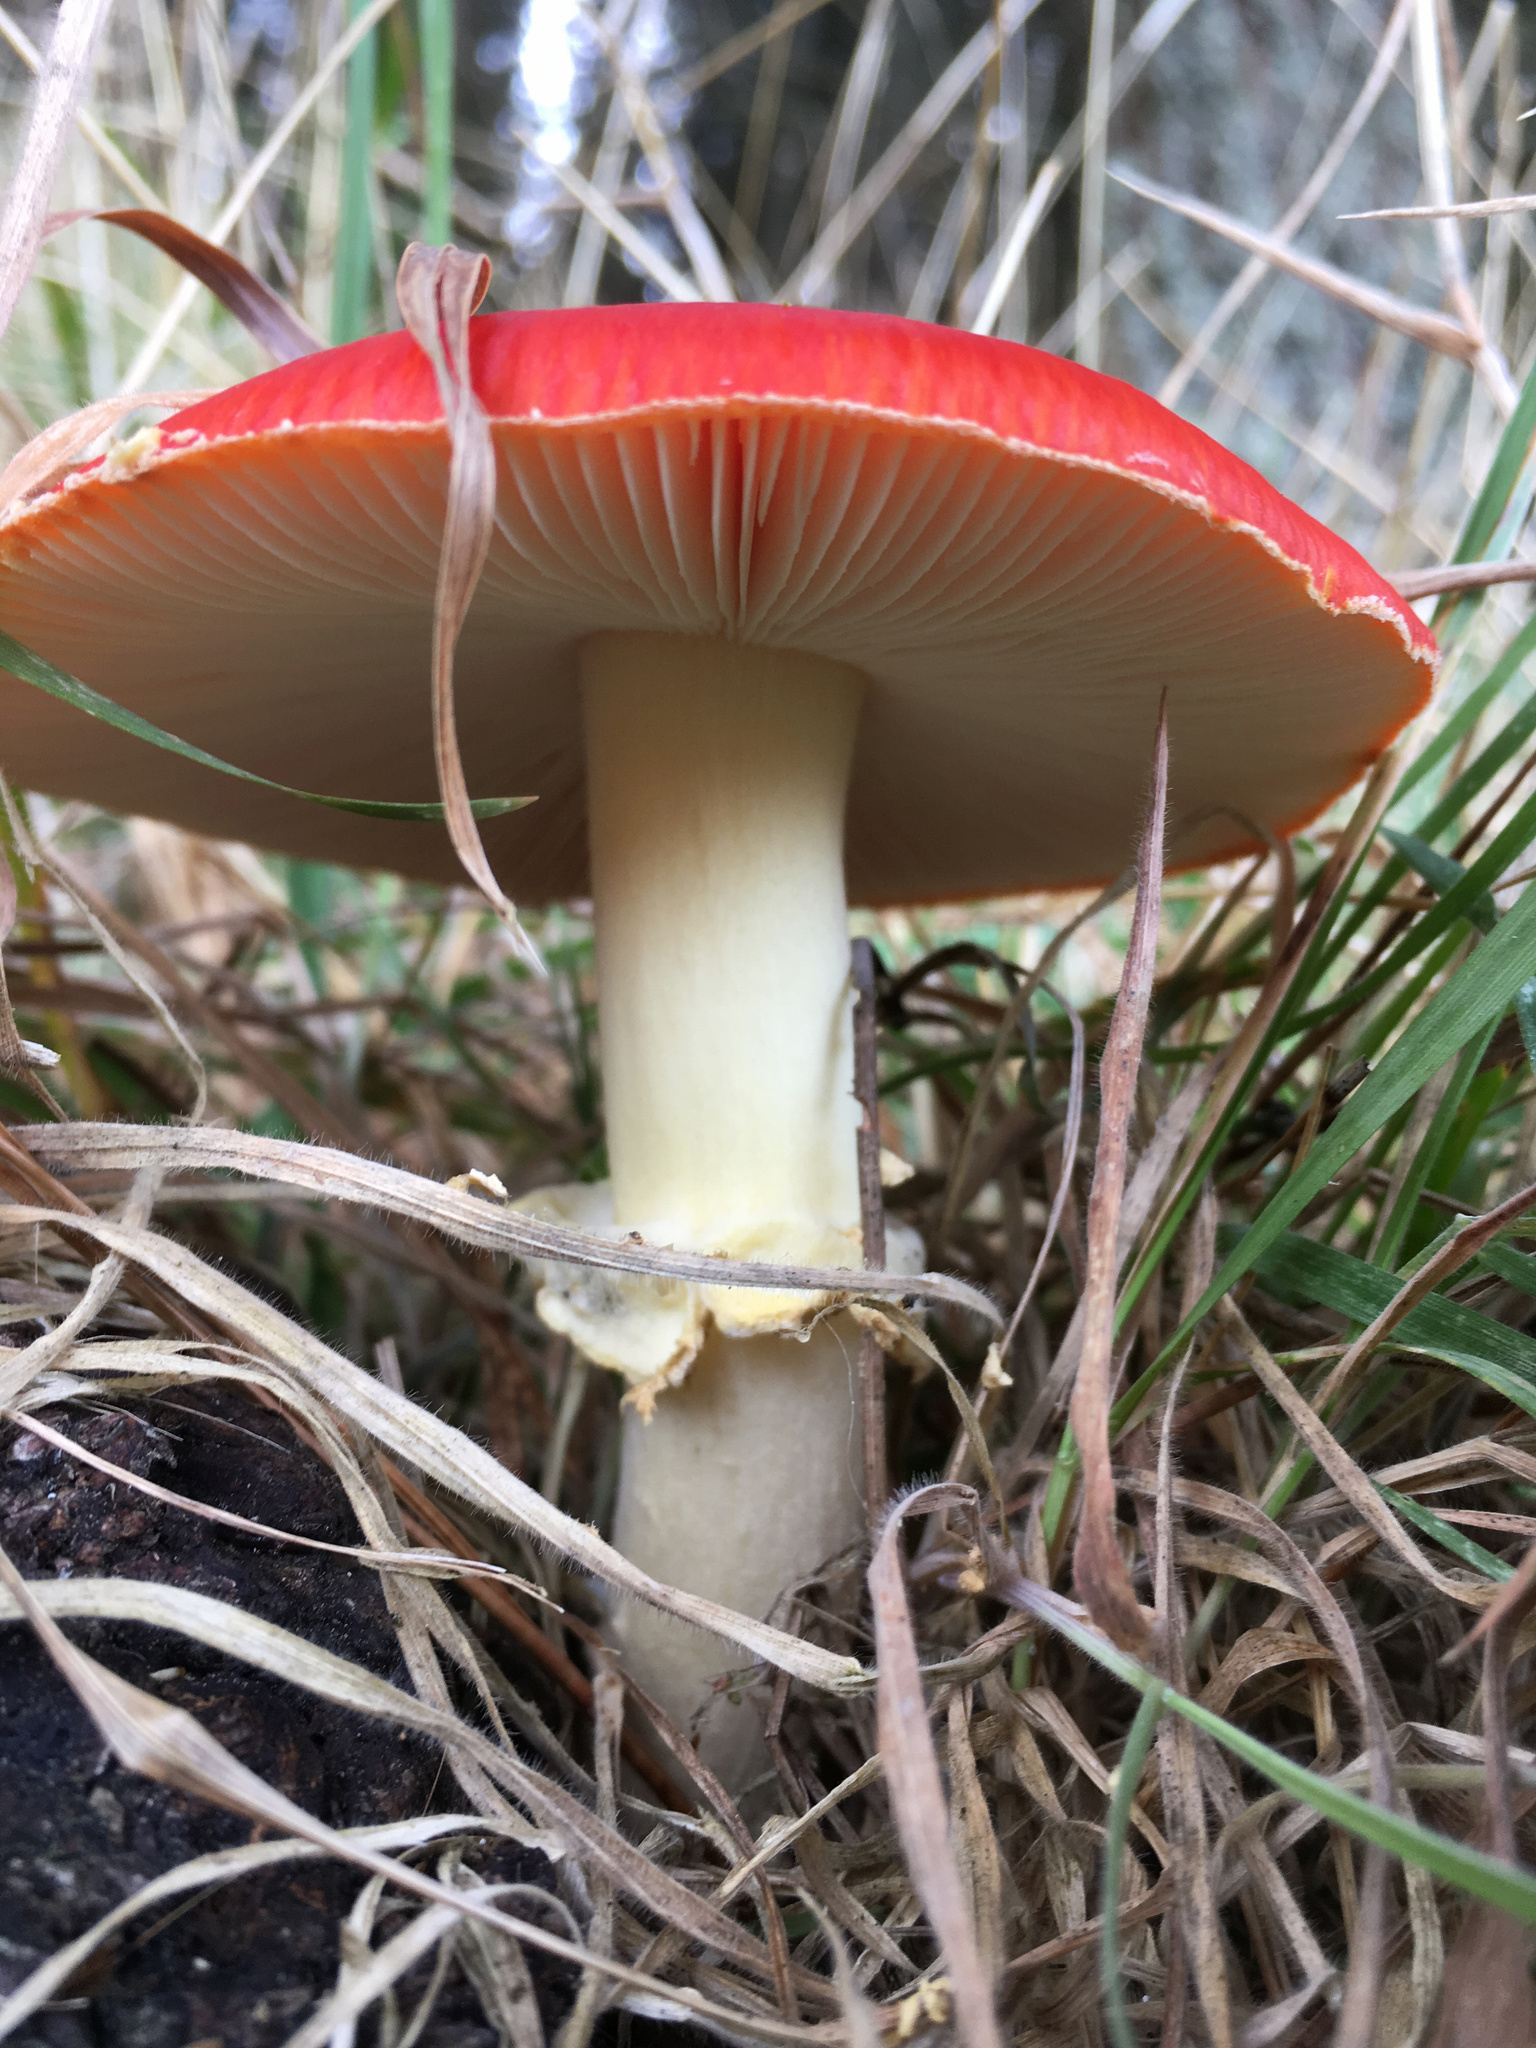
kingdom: Fungi
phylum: Basidiomycota
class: Agaricomycetes
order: Agaricales
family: Amanitaceae
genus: Amanita
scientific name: Amanita muscaria
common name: Fly agaric
